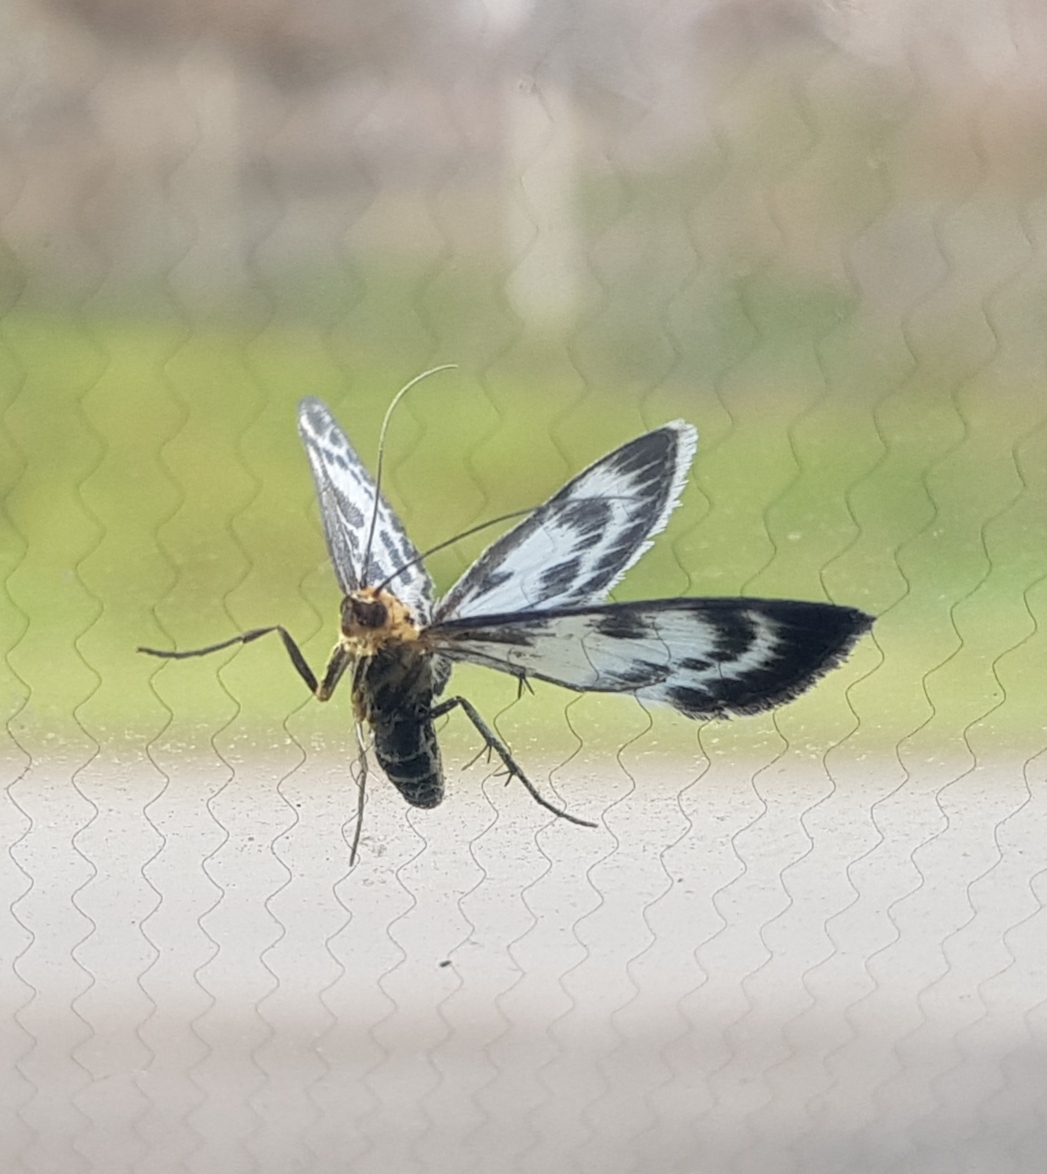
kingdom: Animalia
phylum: Arthropoda
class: Insecta
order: Lepidoptera
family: Crambidae
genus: Anania
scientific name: Anania hortulata
